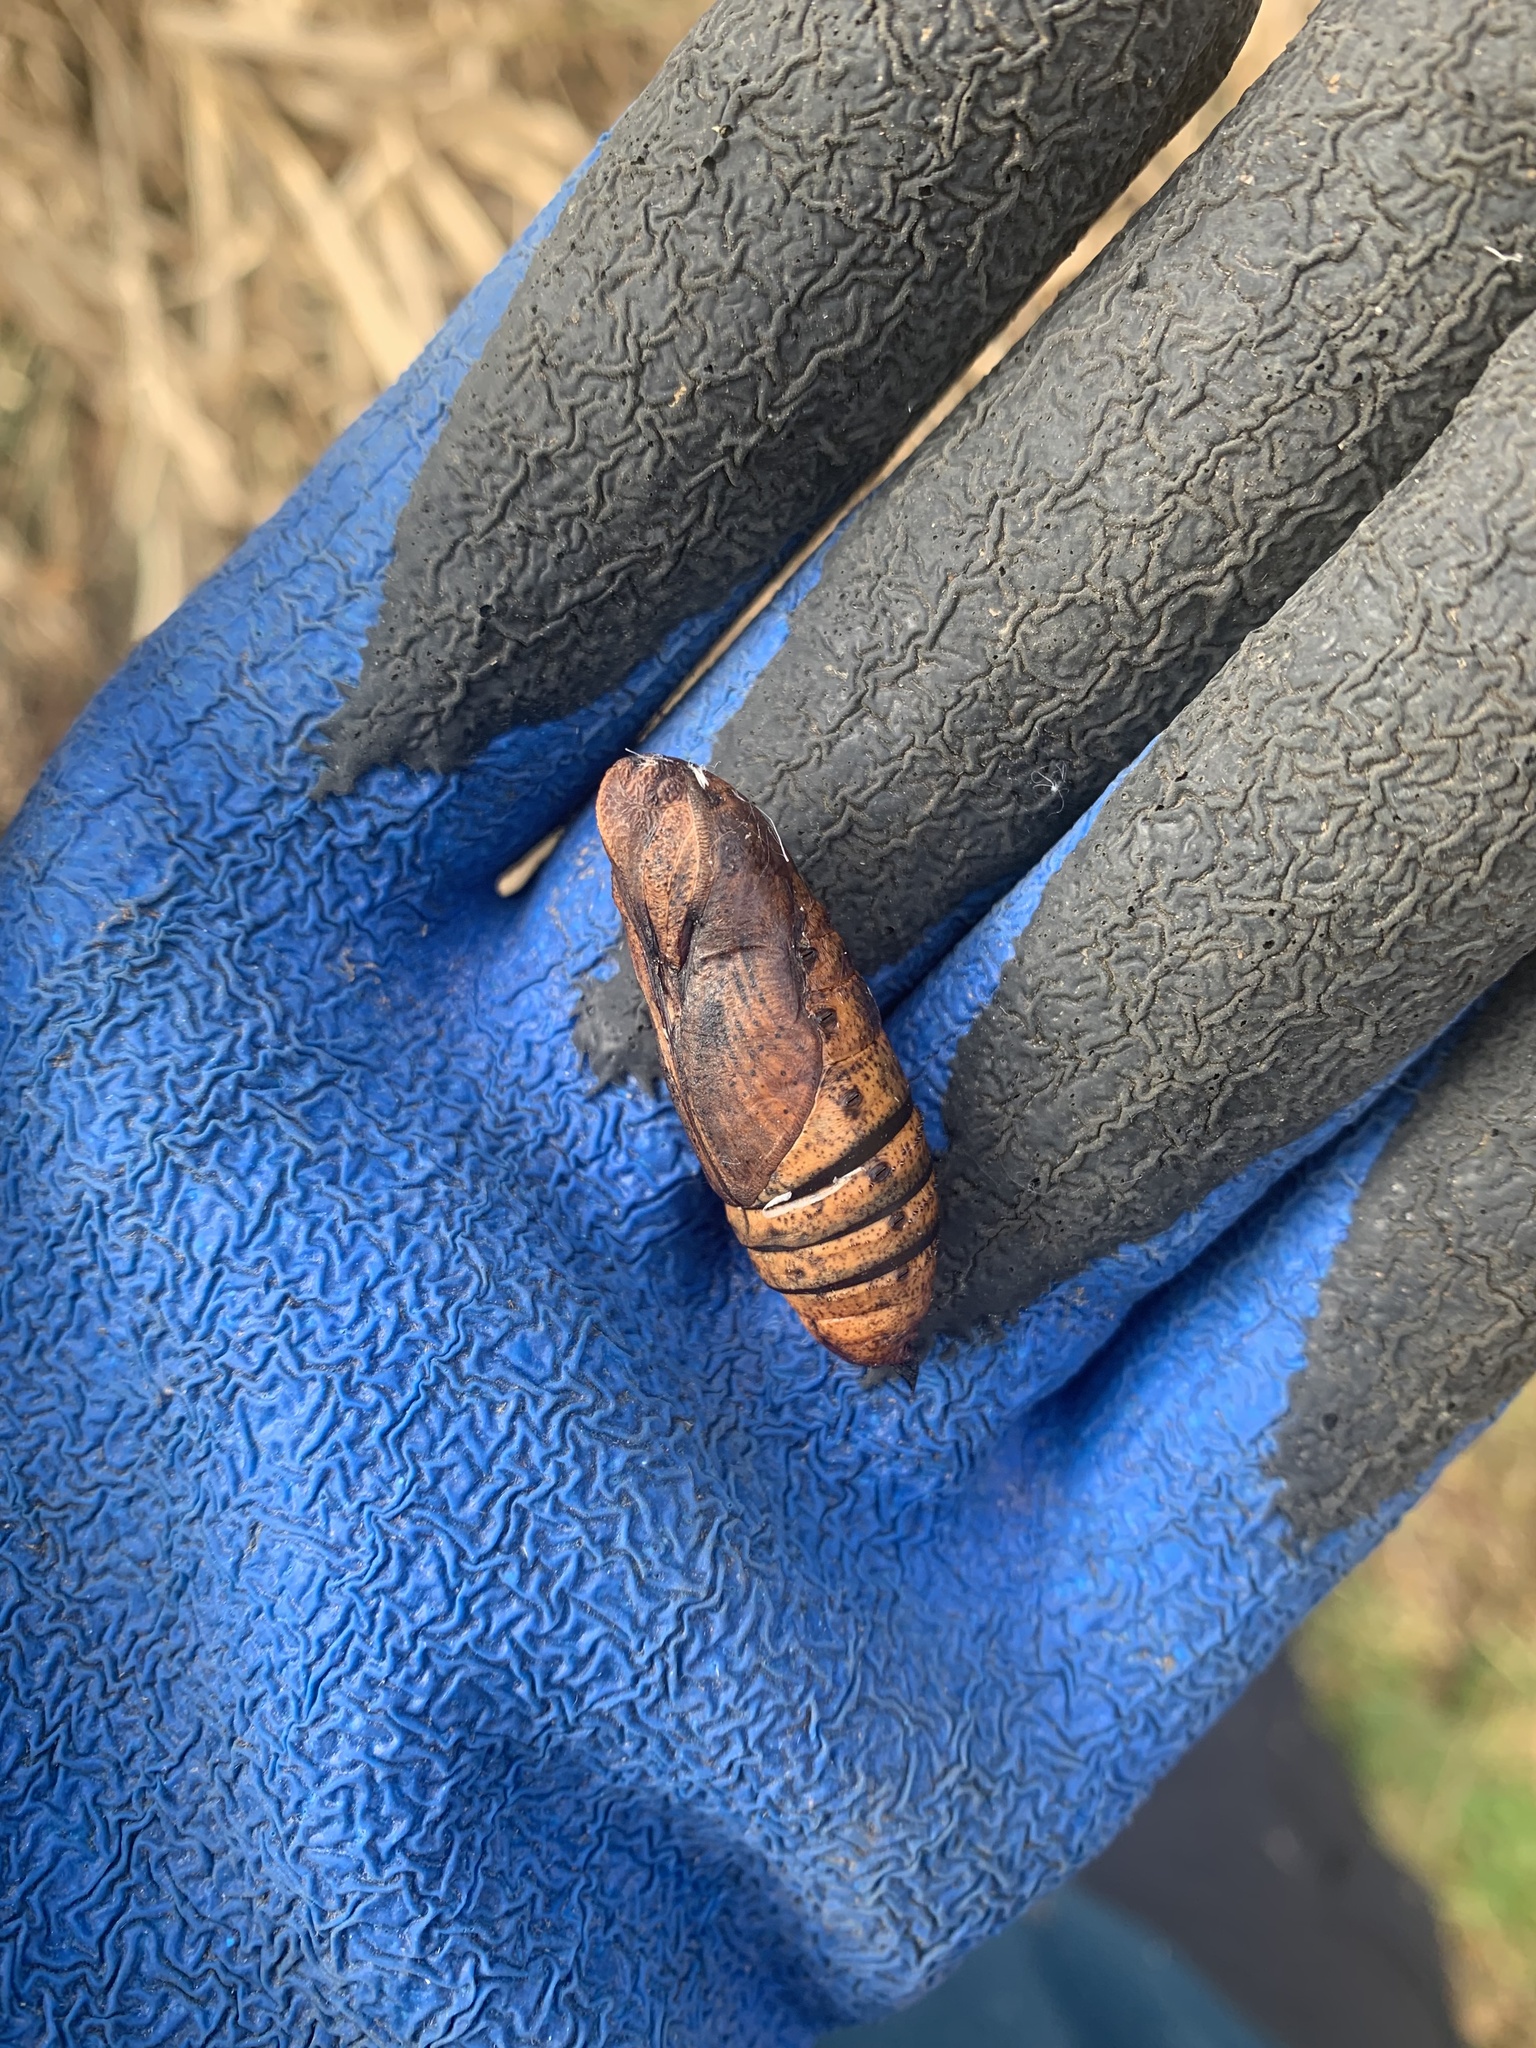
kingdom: Animalia
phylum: Arthropoda
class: Insecta
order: Lepidoptera
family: Sphingidae
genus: Deilephila
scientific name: Deilephila elpenor
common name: Elephant hawk-moth
